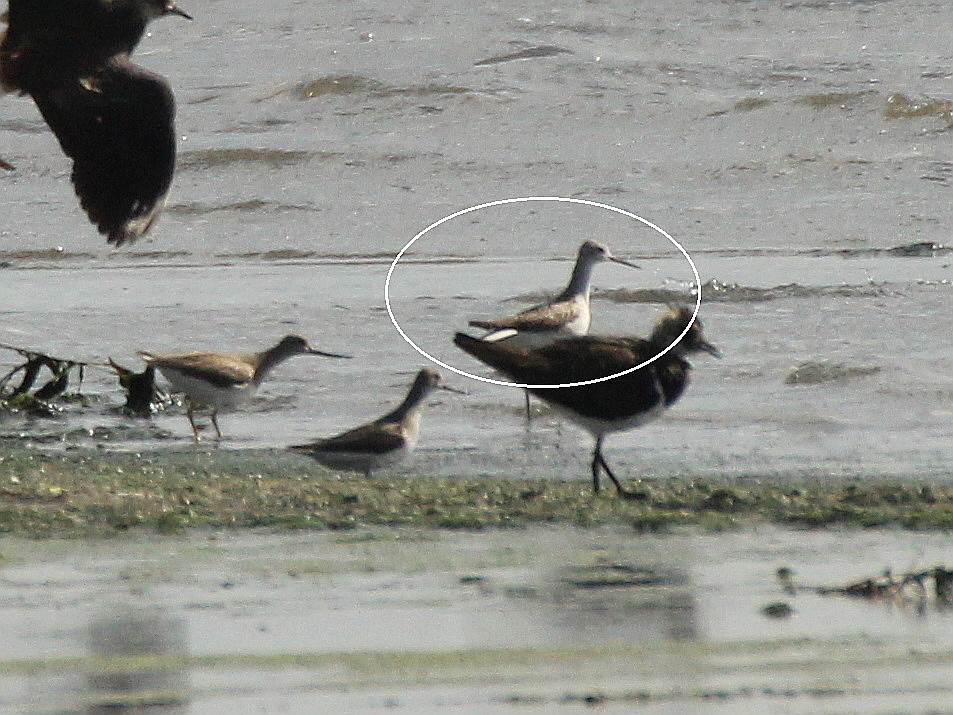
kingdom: Animalia
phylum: Chordata
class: Aves
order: Charadriiformes
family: Scolopacidae
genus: Tringa
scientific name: Tringa stagnatilis
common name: Marsh sandpiper
